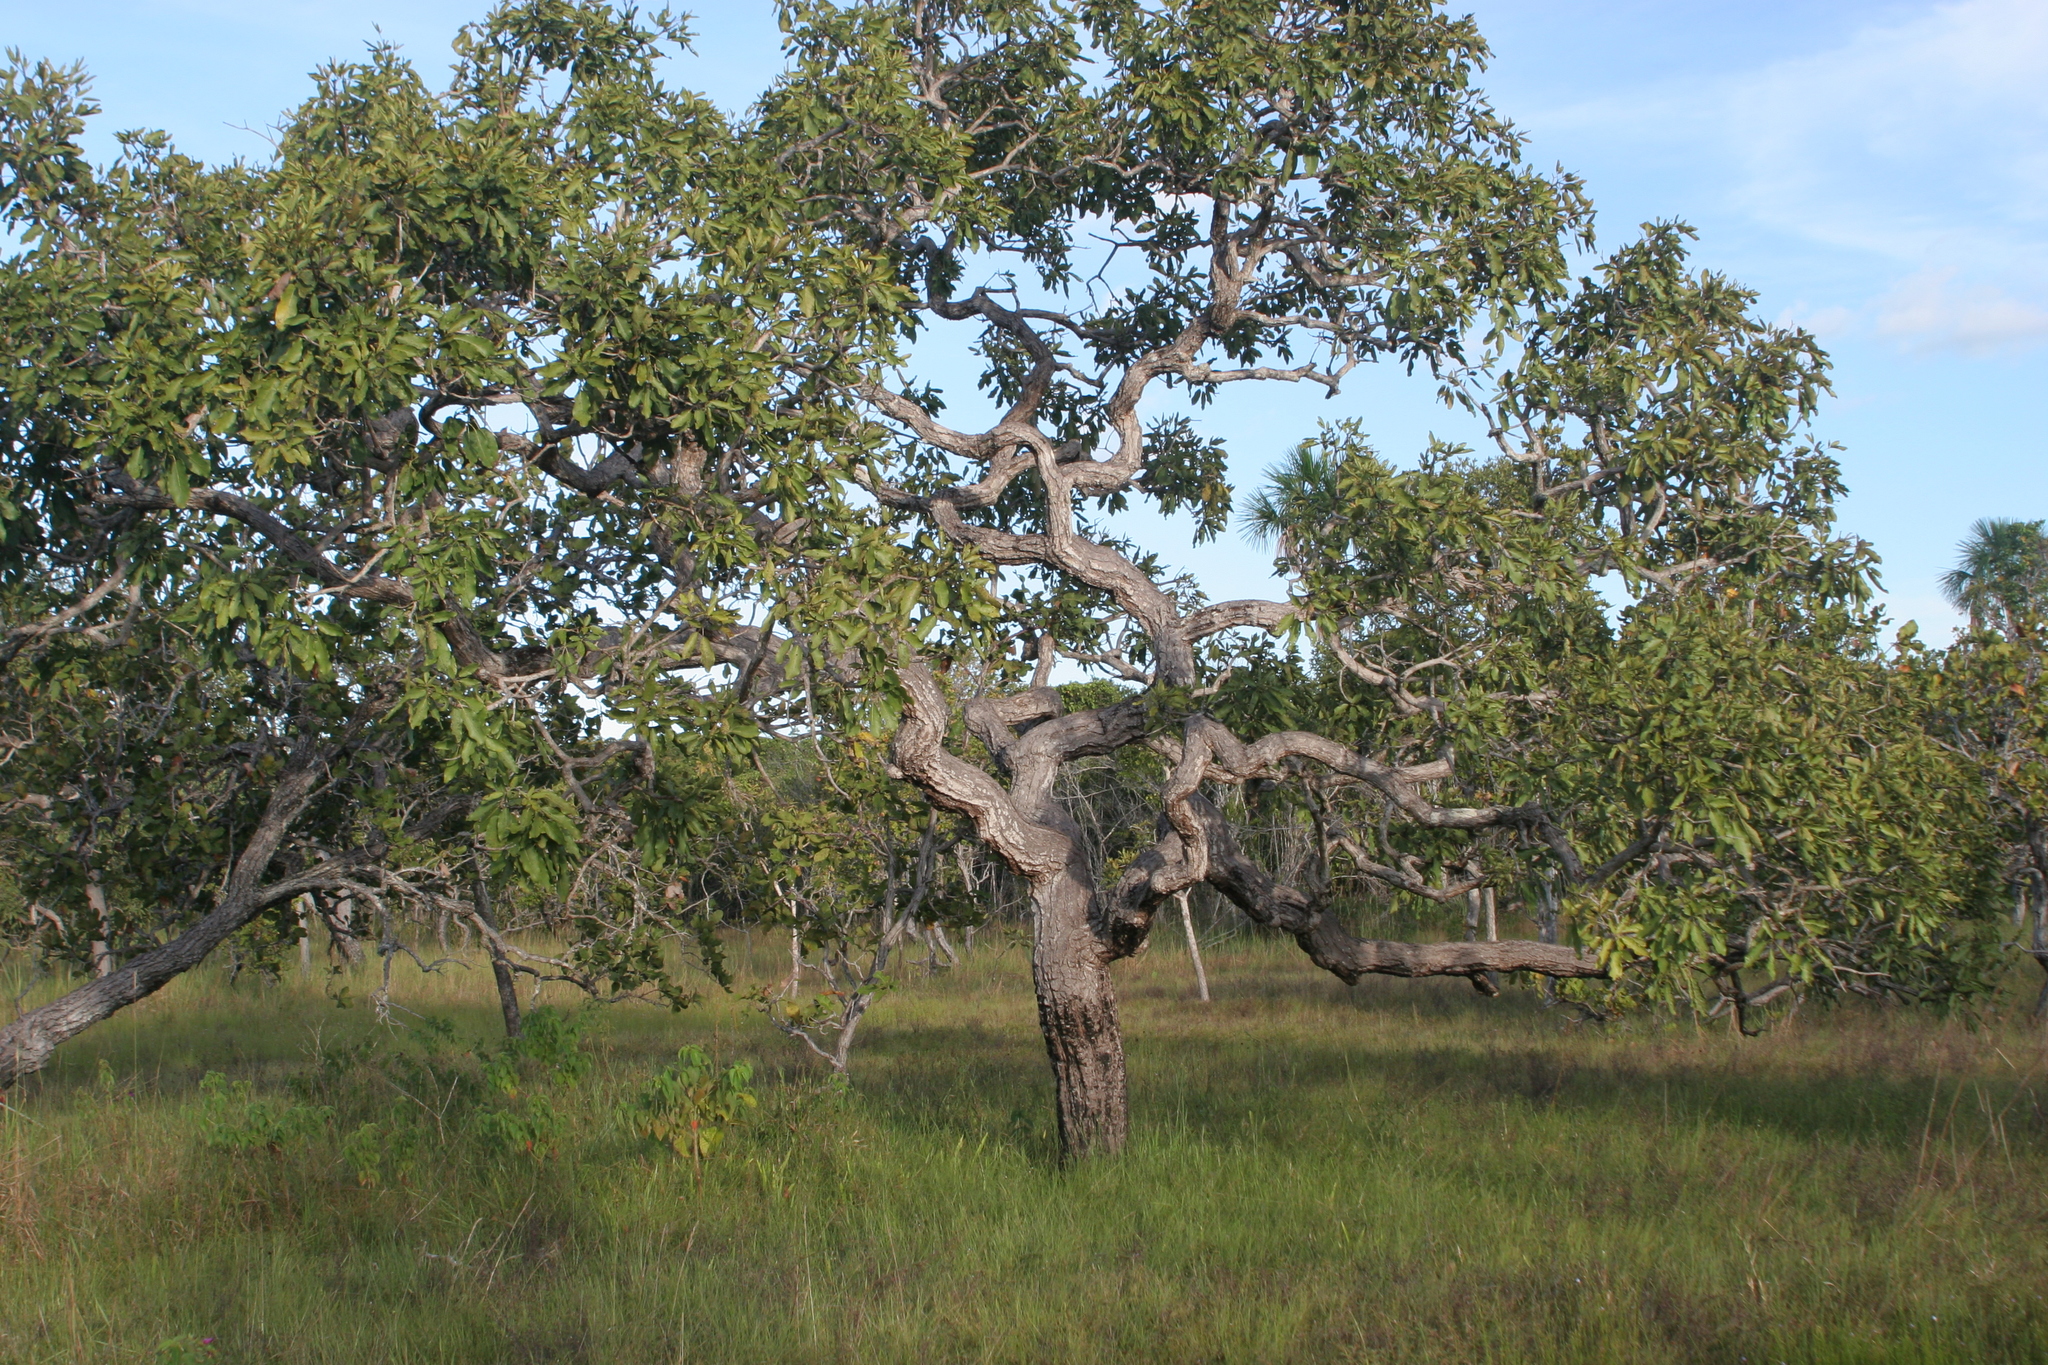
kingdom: Plantae
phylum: Tracheophyta
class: Magnoliopsida
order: Dilleniales
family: Dilleniaceae
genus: Curatella
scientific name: Curatella americana
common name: Sandpaper tree
